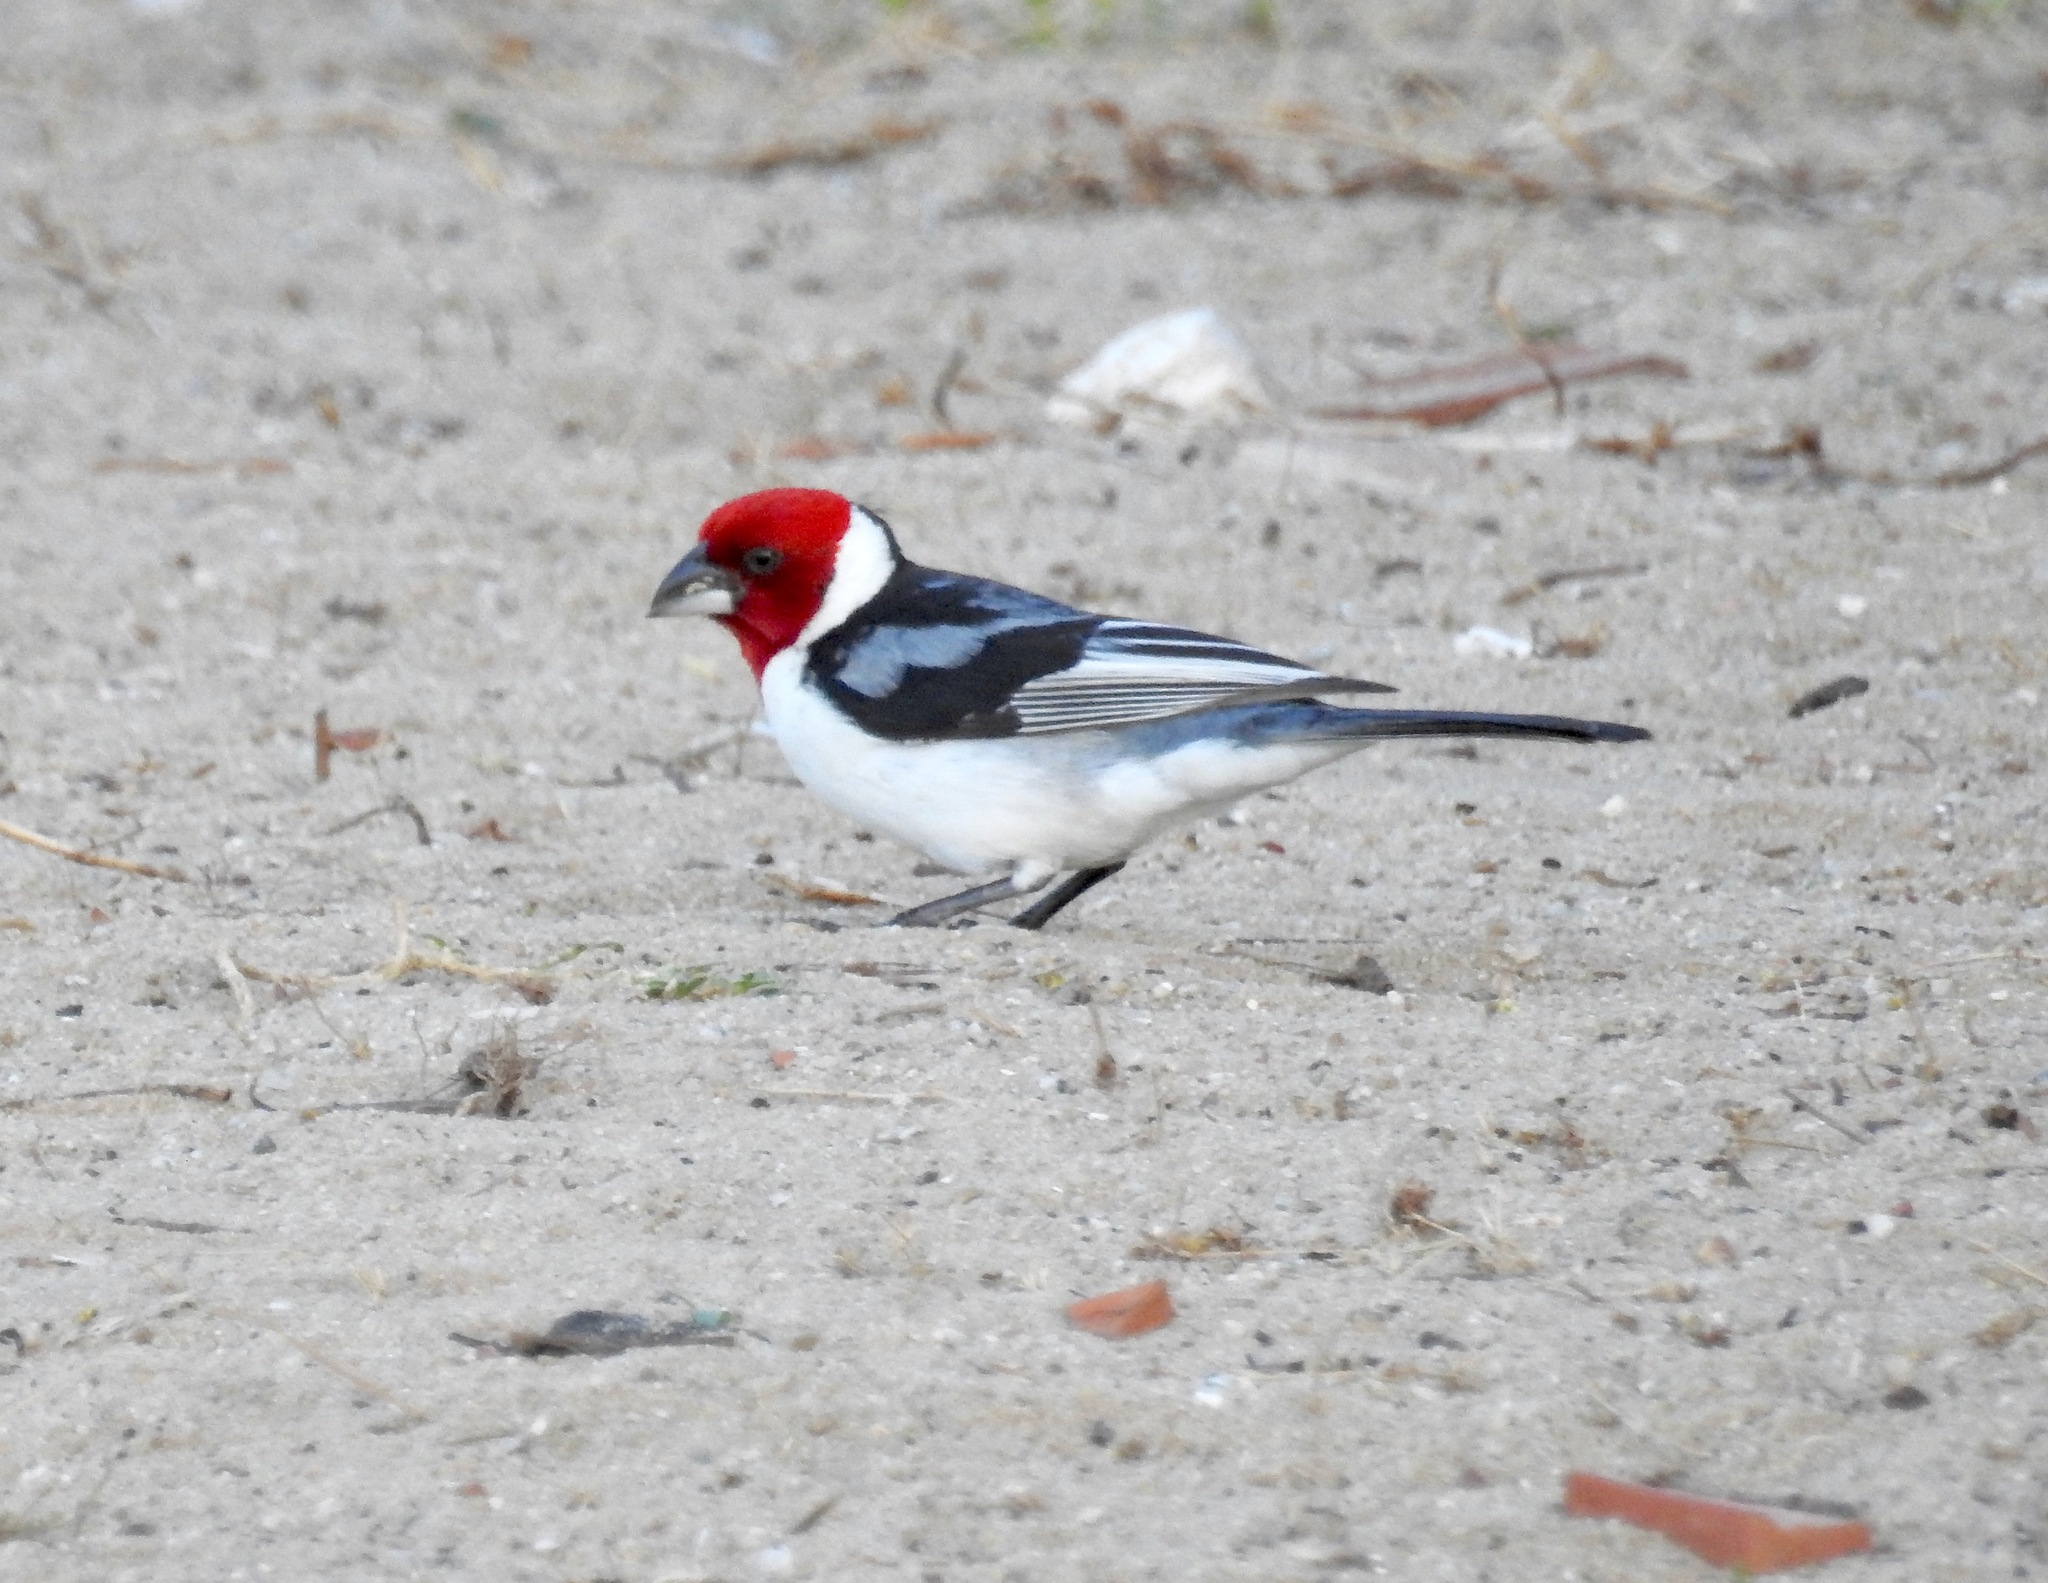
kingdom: Animalia
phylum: Chordata
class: Aves
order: Passeriformes
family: Thraupidae
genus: Paroaria
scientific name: Paroaria dominicana
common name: Red-cowled cardinal
